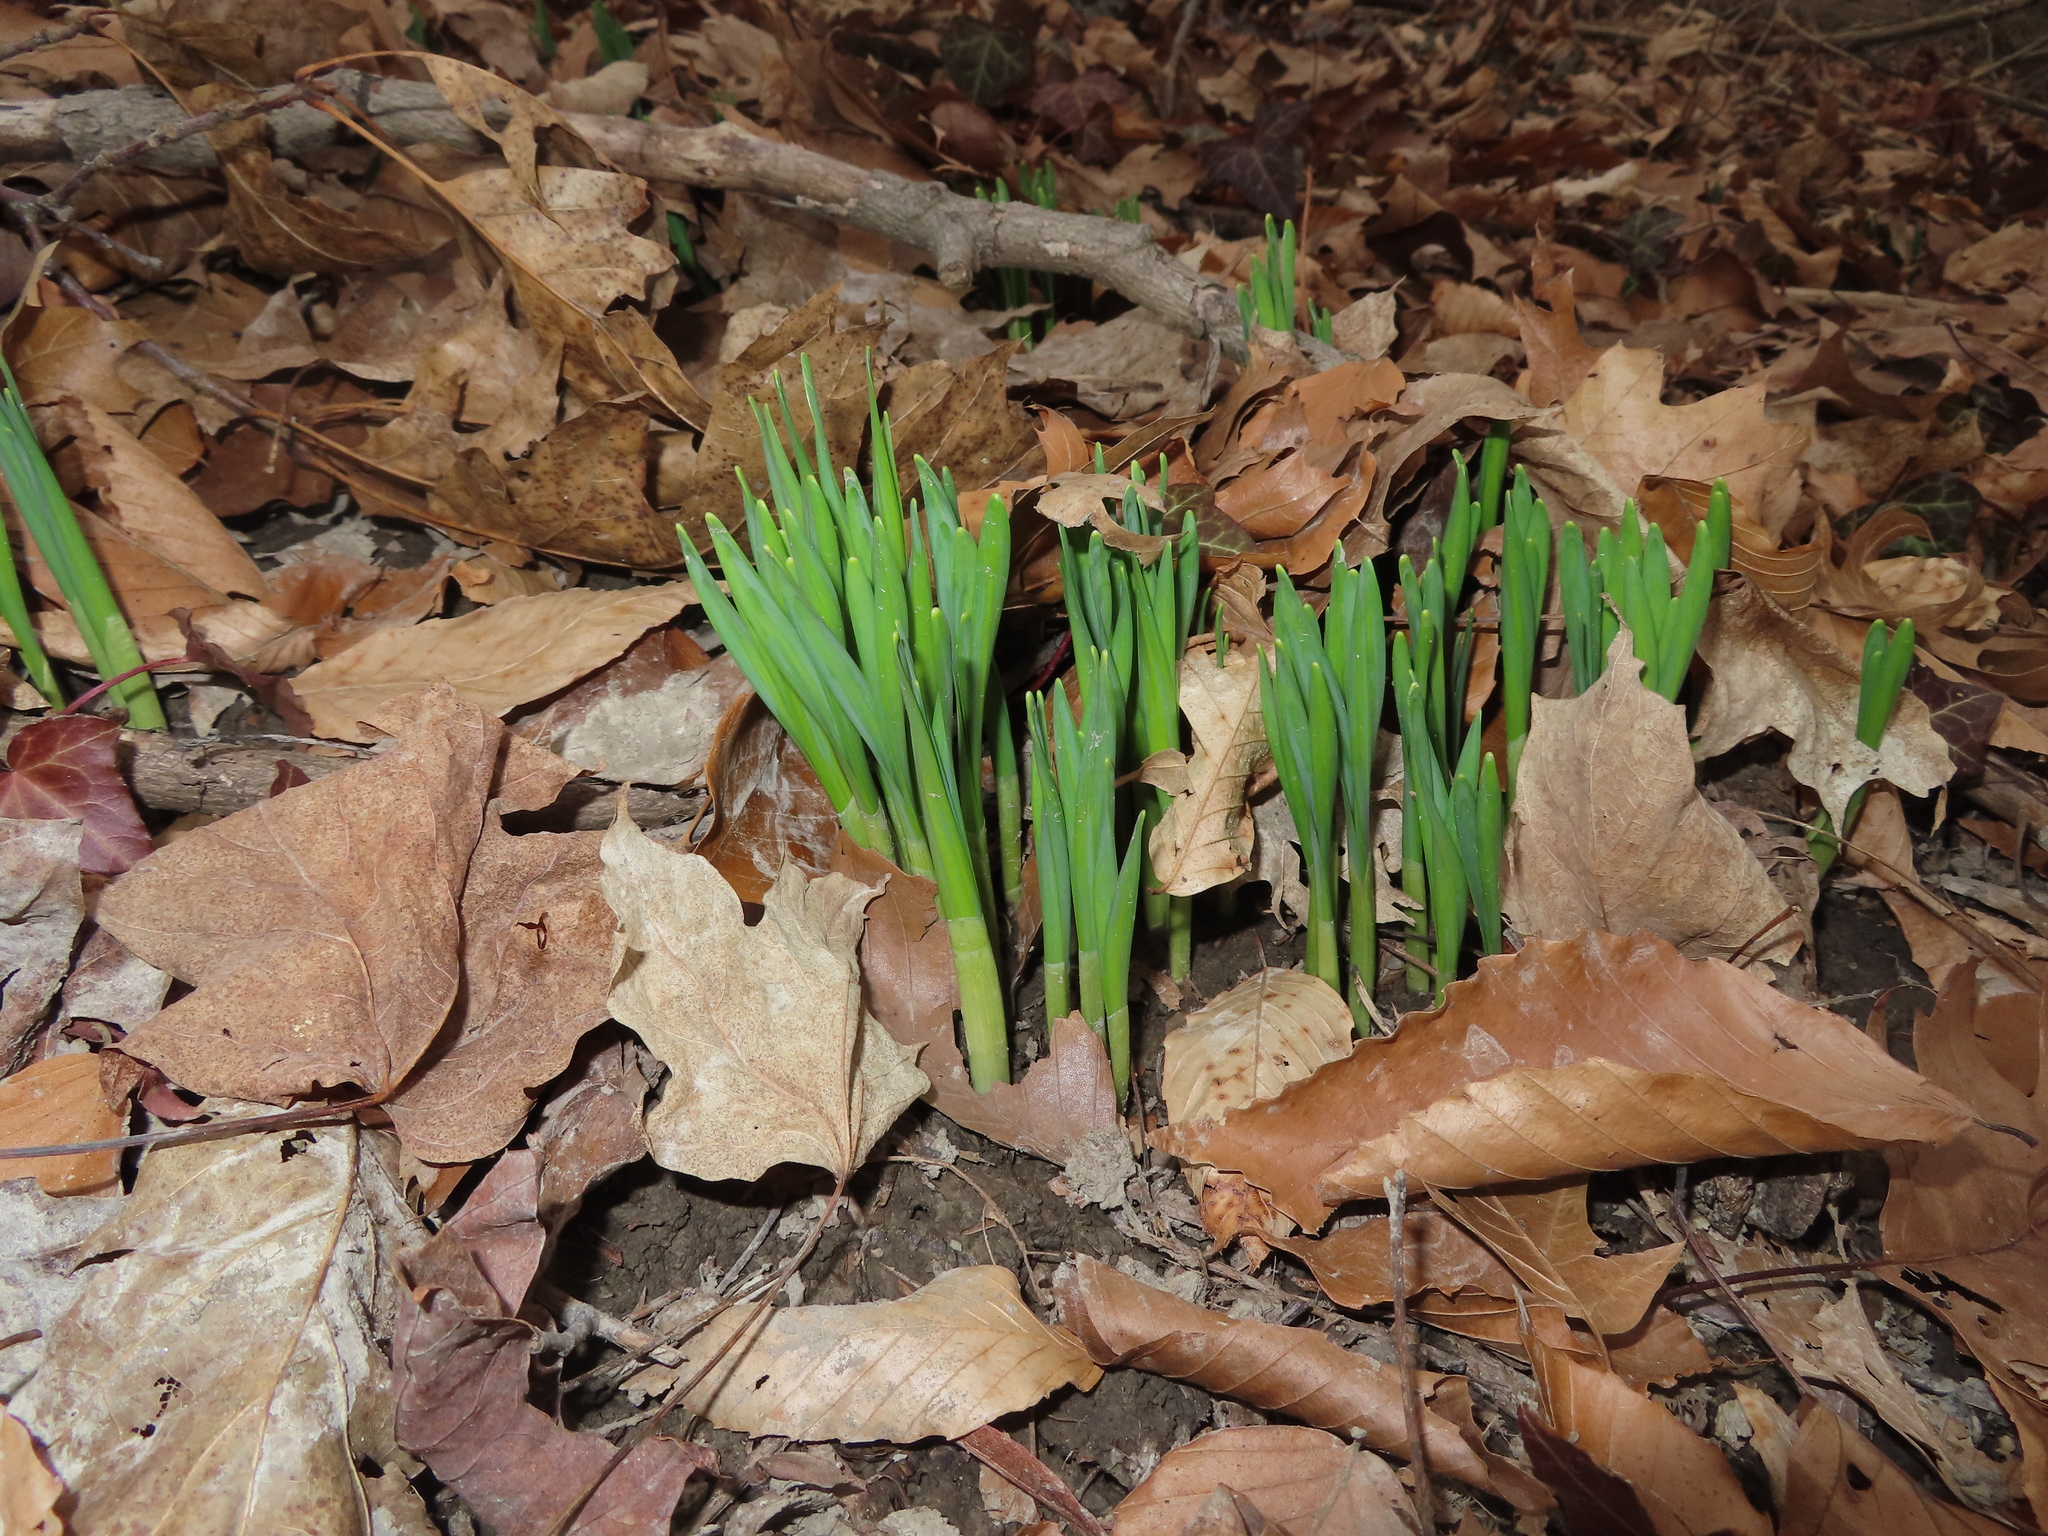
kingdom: Plantae
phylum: Tracheophyta
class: Liliopsida
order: Asparagales
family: Amaryllidaceae
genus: Narcissus
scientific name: Narcissus
